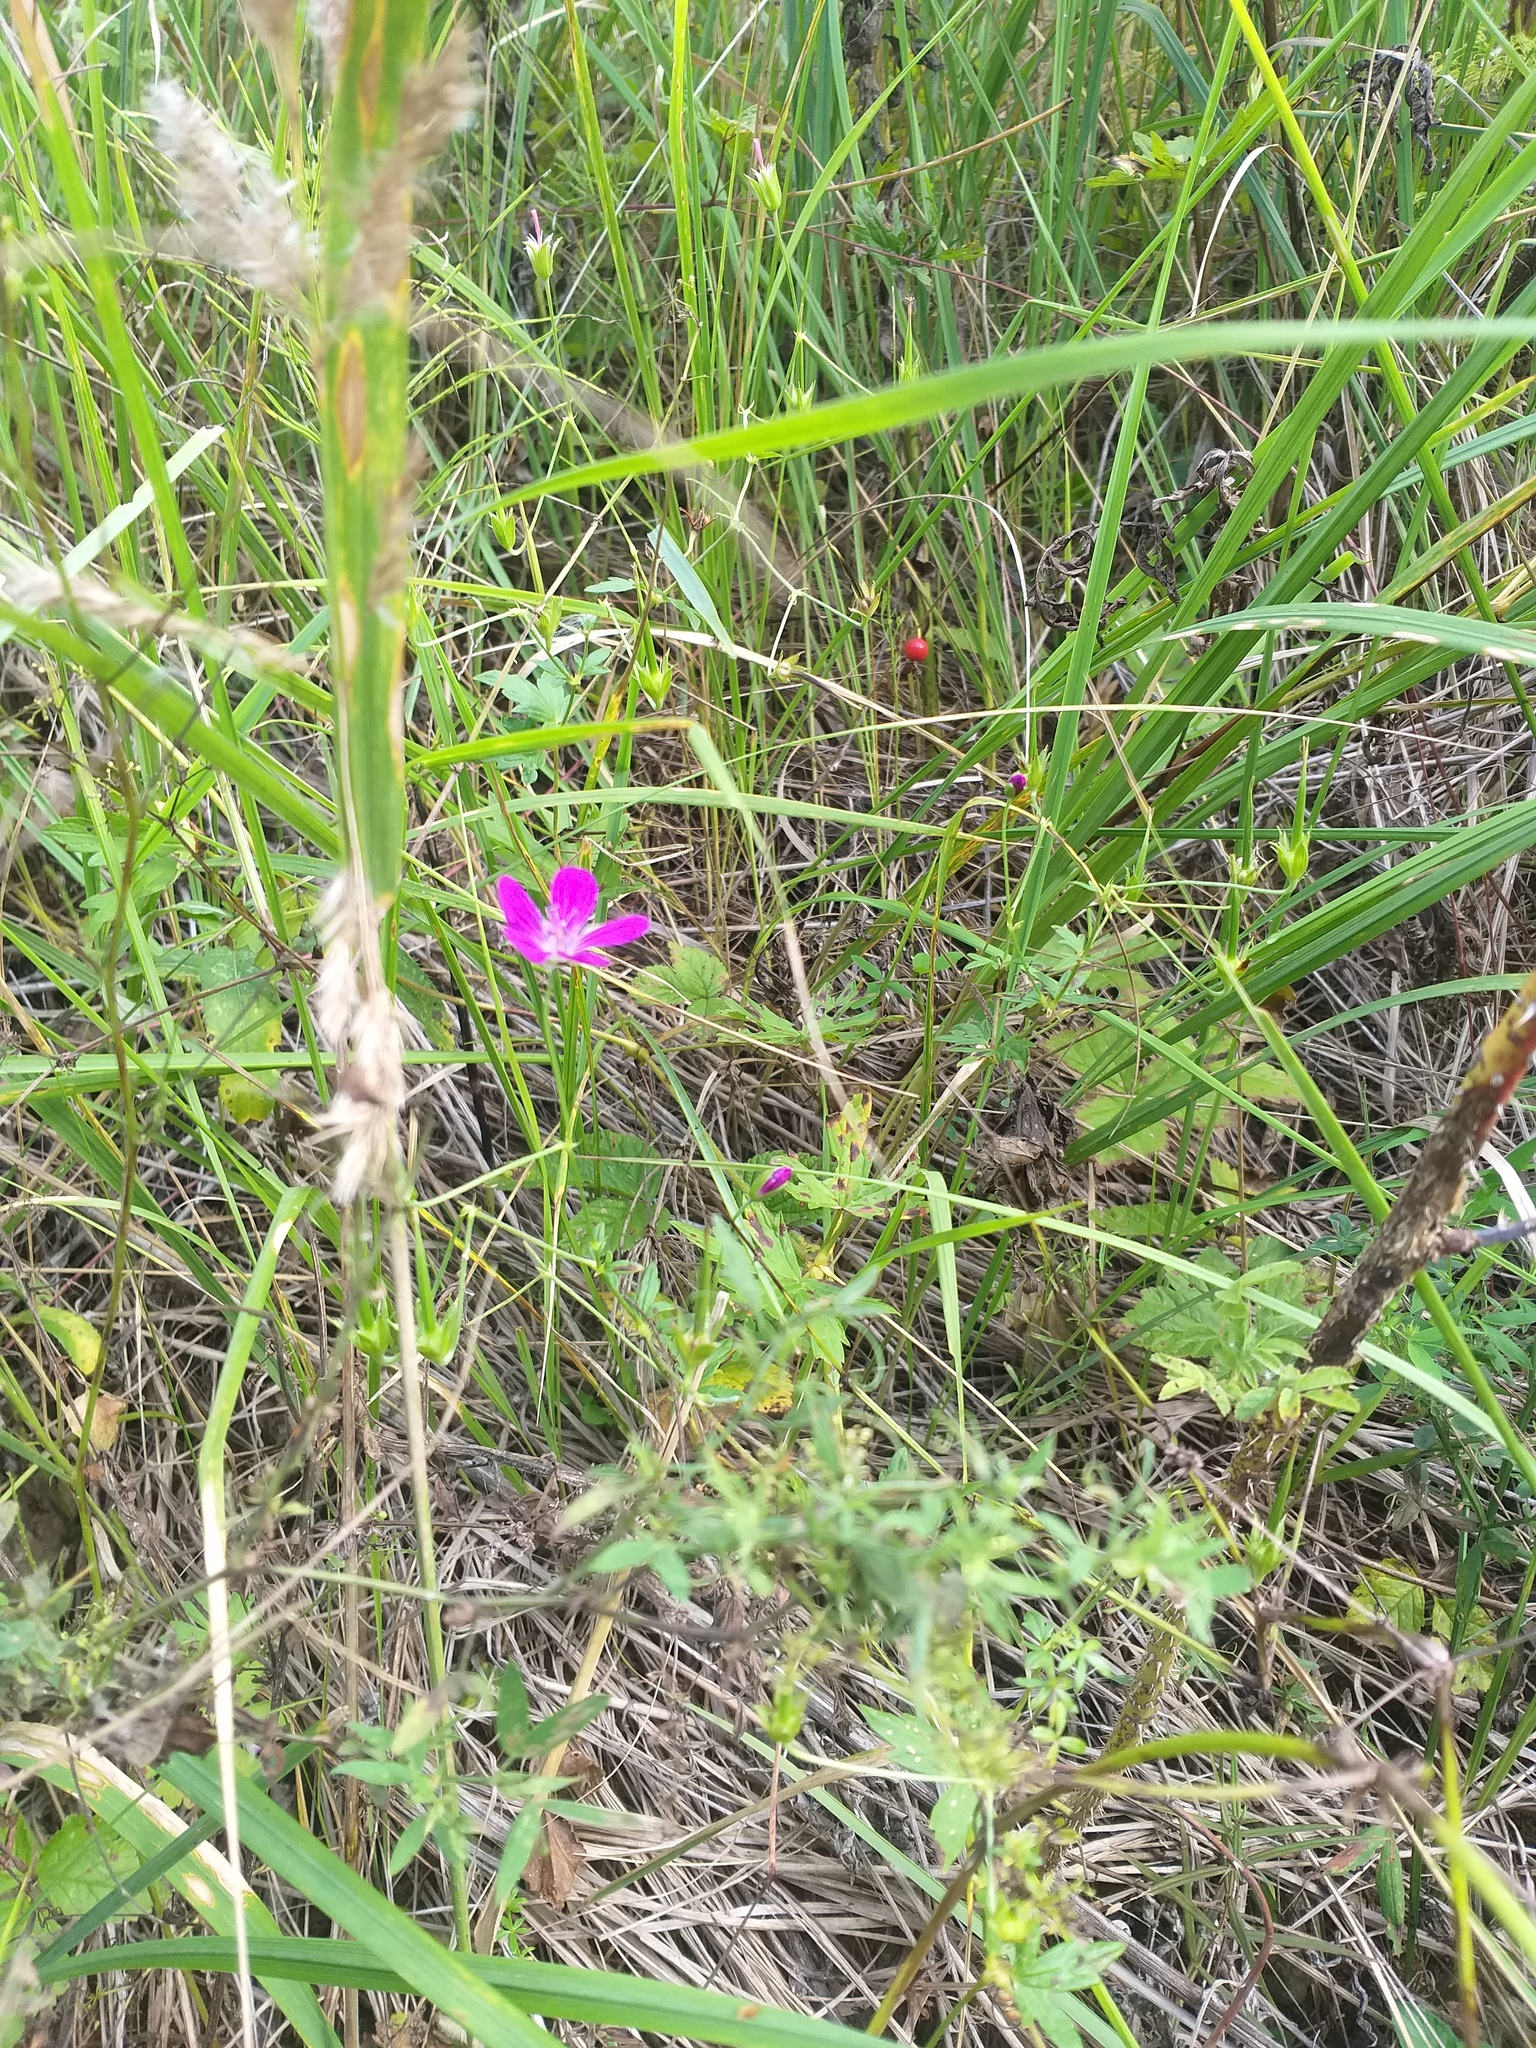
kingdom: Plantae
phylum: Tracheophyta
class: Magnoliopsida
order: Geraniales
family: Geraniaceae
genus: Geranium
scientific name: Geranium palustre
